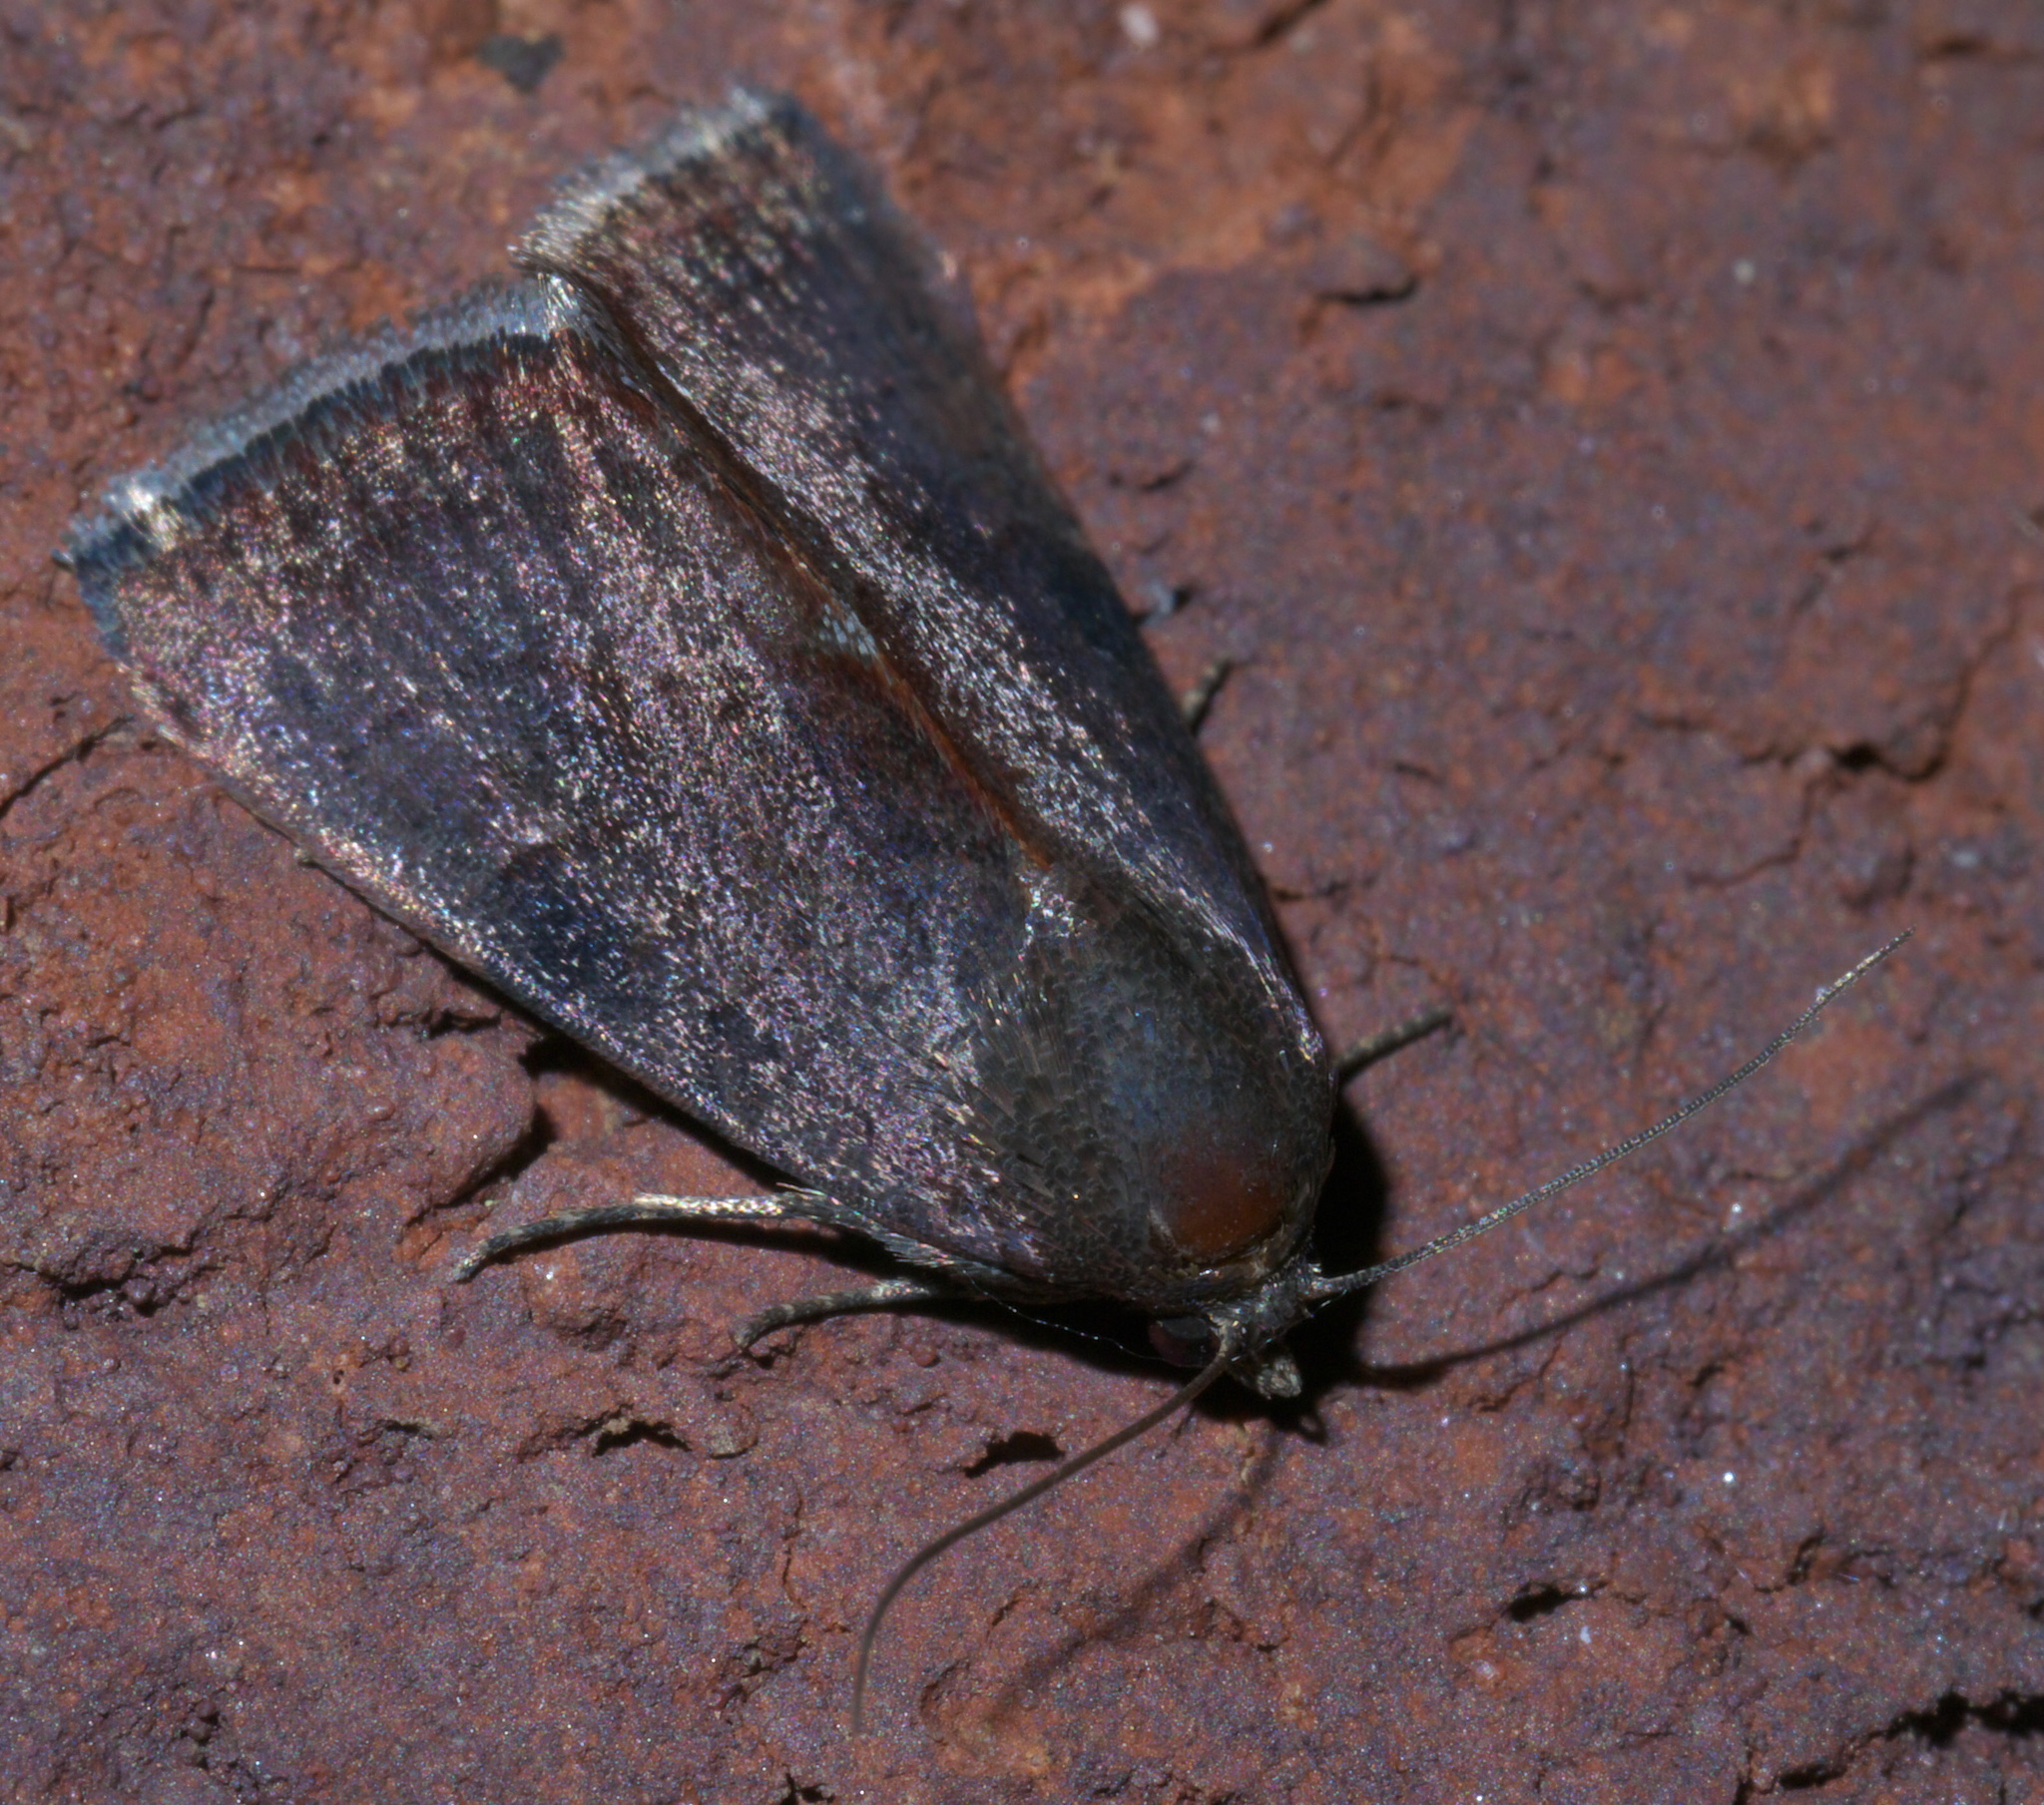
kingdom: Animalia
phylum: Arthropoda
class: Insecta
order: Lepidoptera
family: Noctuidae
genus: Galgula
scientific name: Galgula partita
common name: Wedgeling
